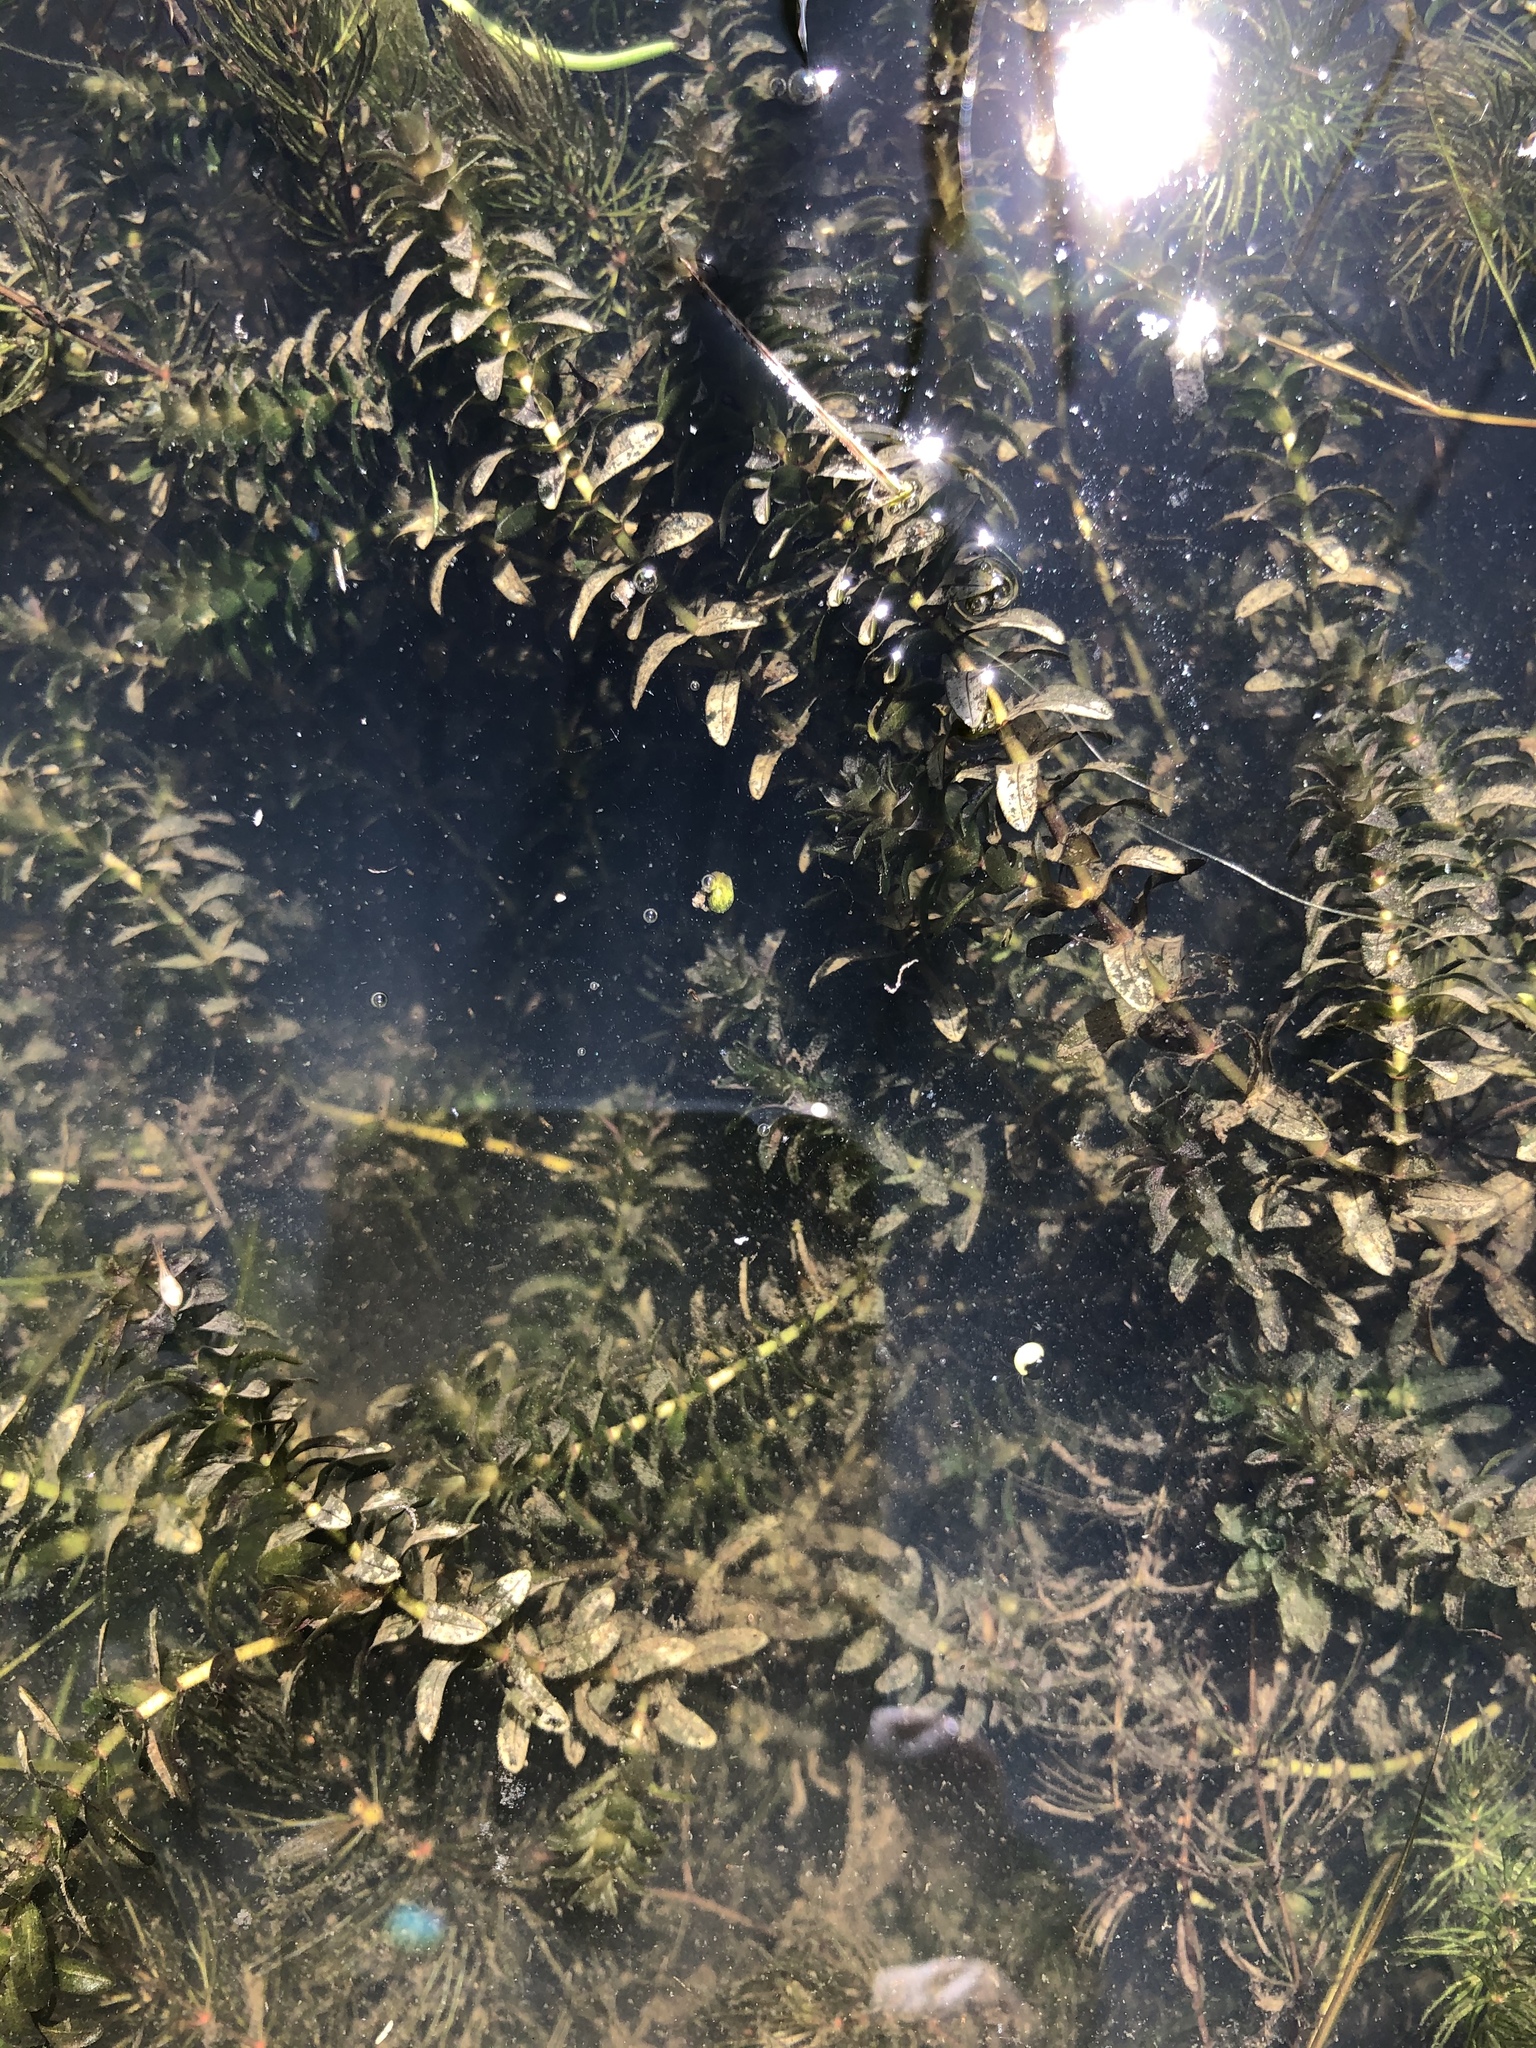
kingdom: Plantae
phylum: Tracheophyta
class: Liliopsida
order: Alismatales
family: Hydrocharitaceae
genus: Elodea
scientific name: Elodea canadensis
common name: Canadian waterweed
